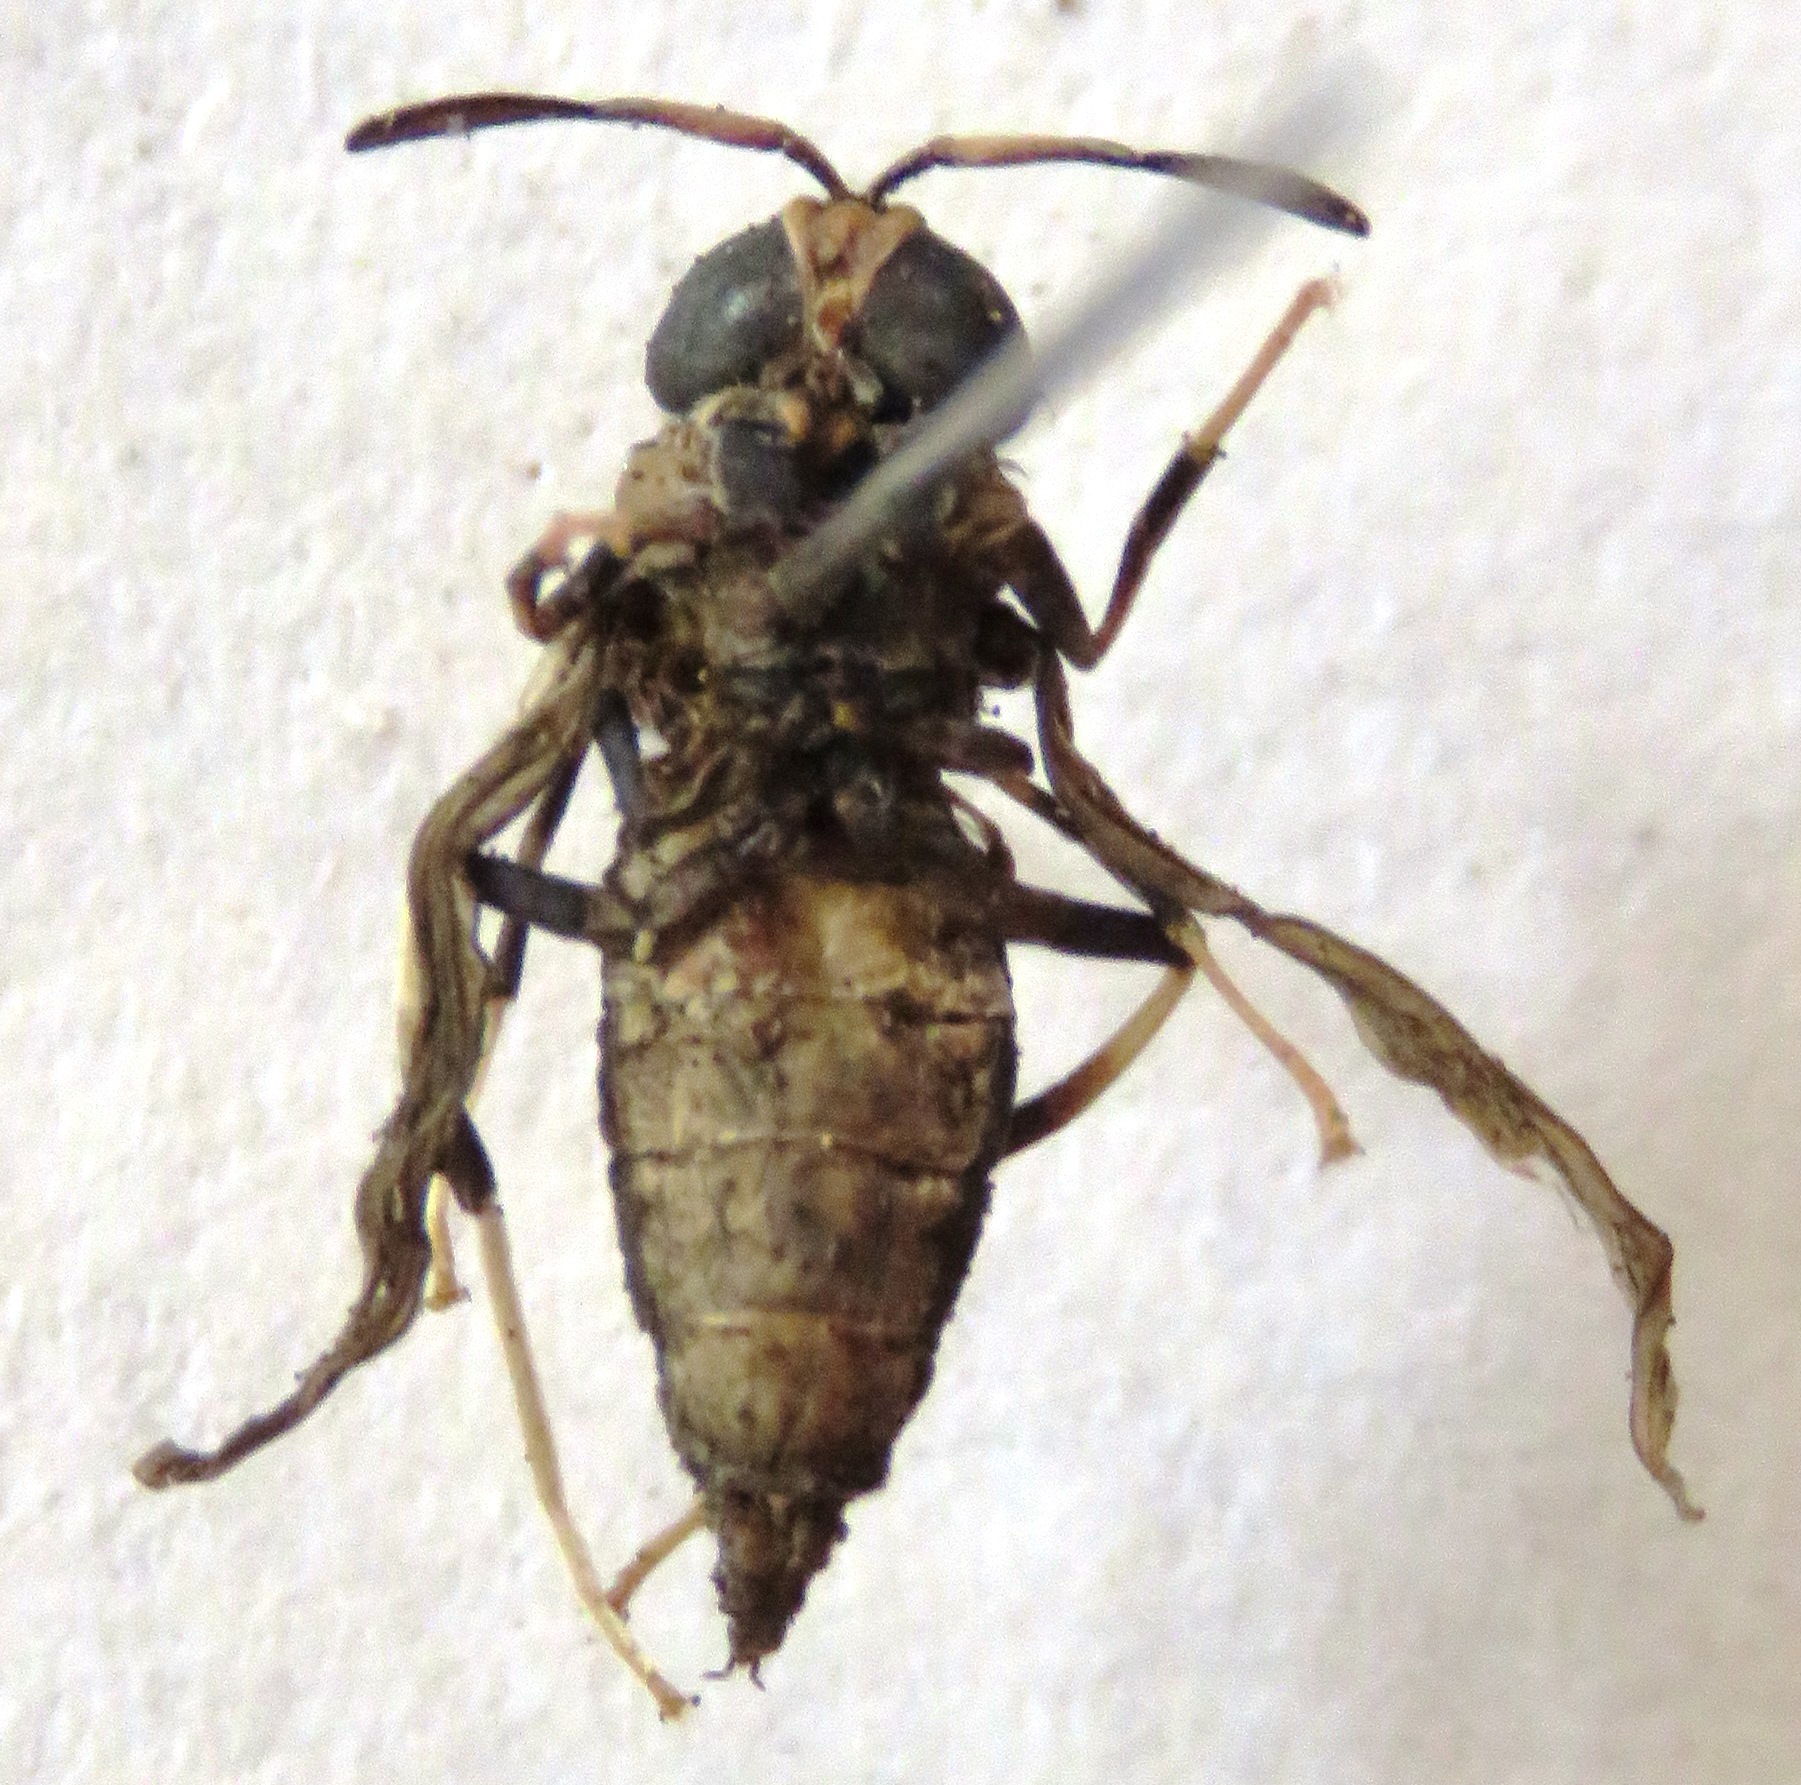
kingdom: Animalia
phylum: Arthropoda
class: Insecta
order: Diptera
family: Stratiomyidae
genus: Hermetia
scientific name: Hermetia illucens
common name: Black soldier fly
